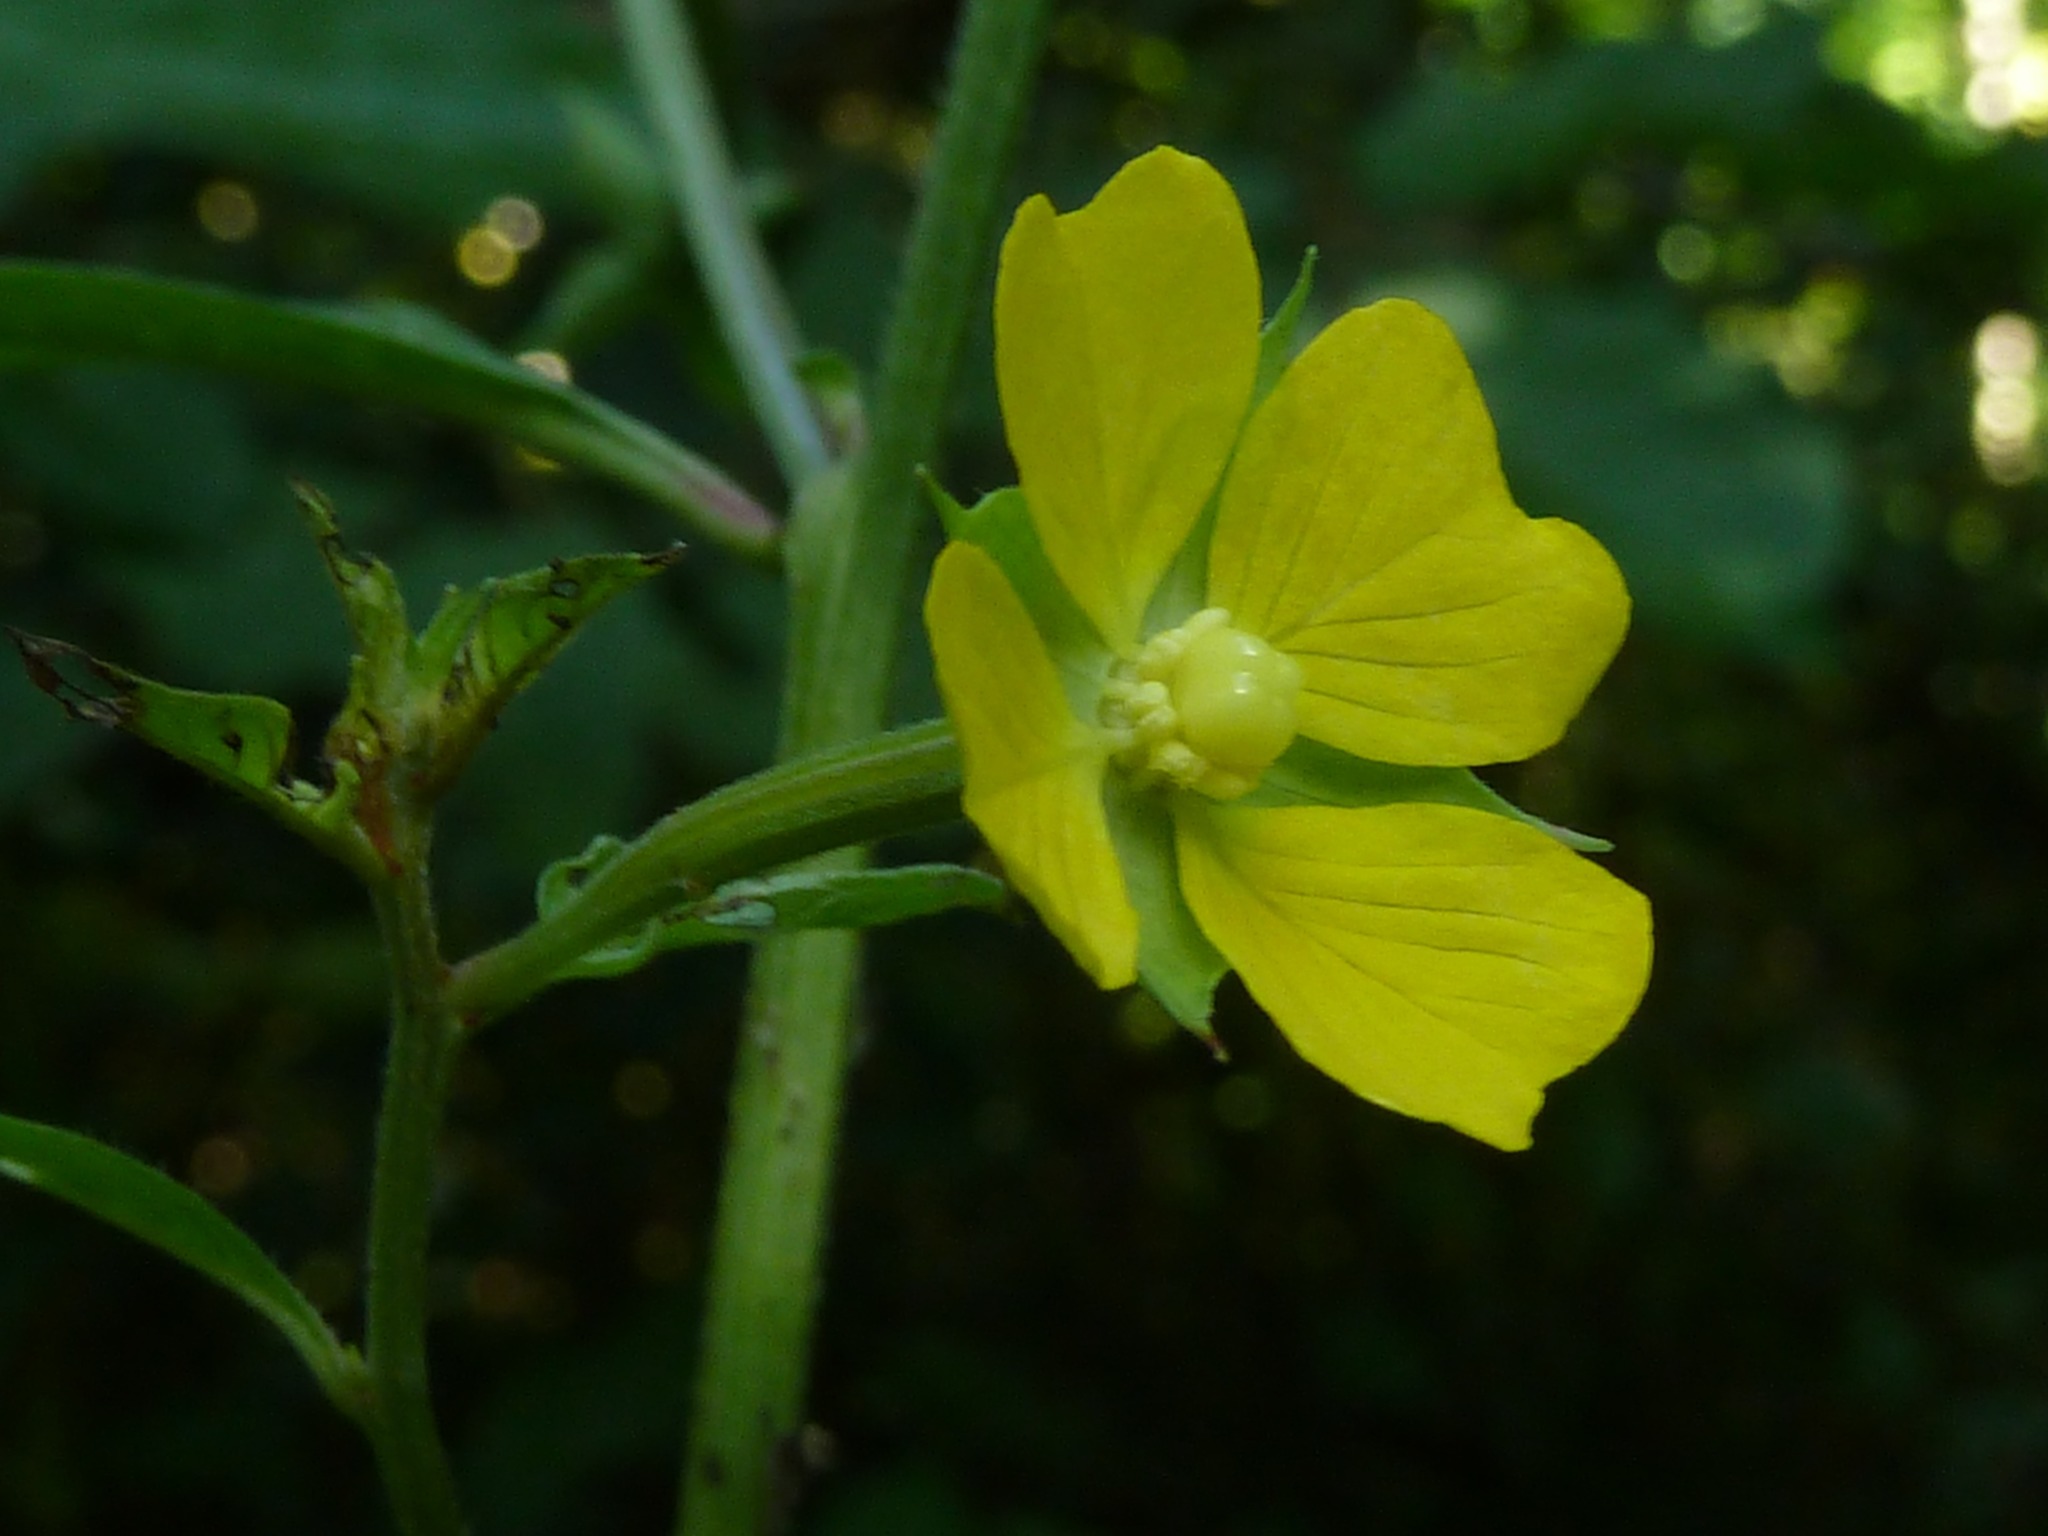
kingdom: Plantae
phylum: Tracheophyta
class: Magnoliopsida
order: Myrtales
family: Onagraceae
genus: Ludwigia
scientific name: Ludwigia octovalvis
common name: Water-primrose
